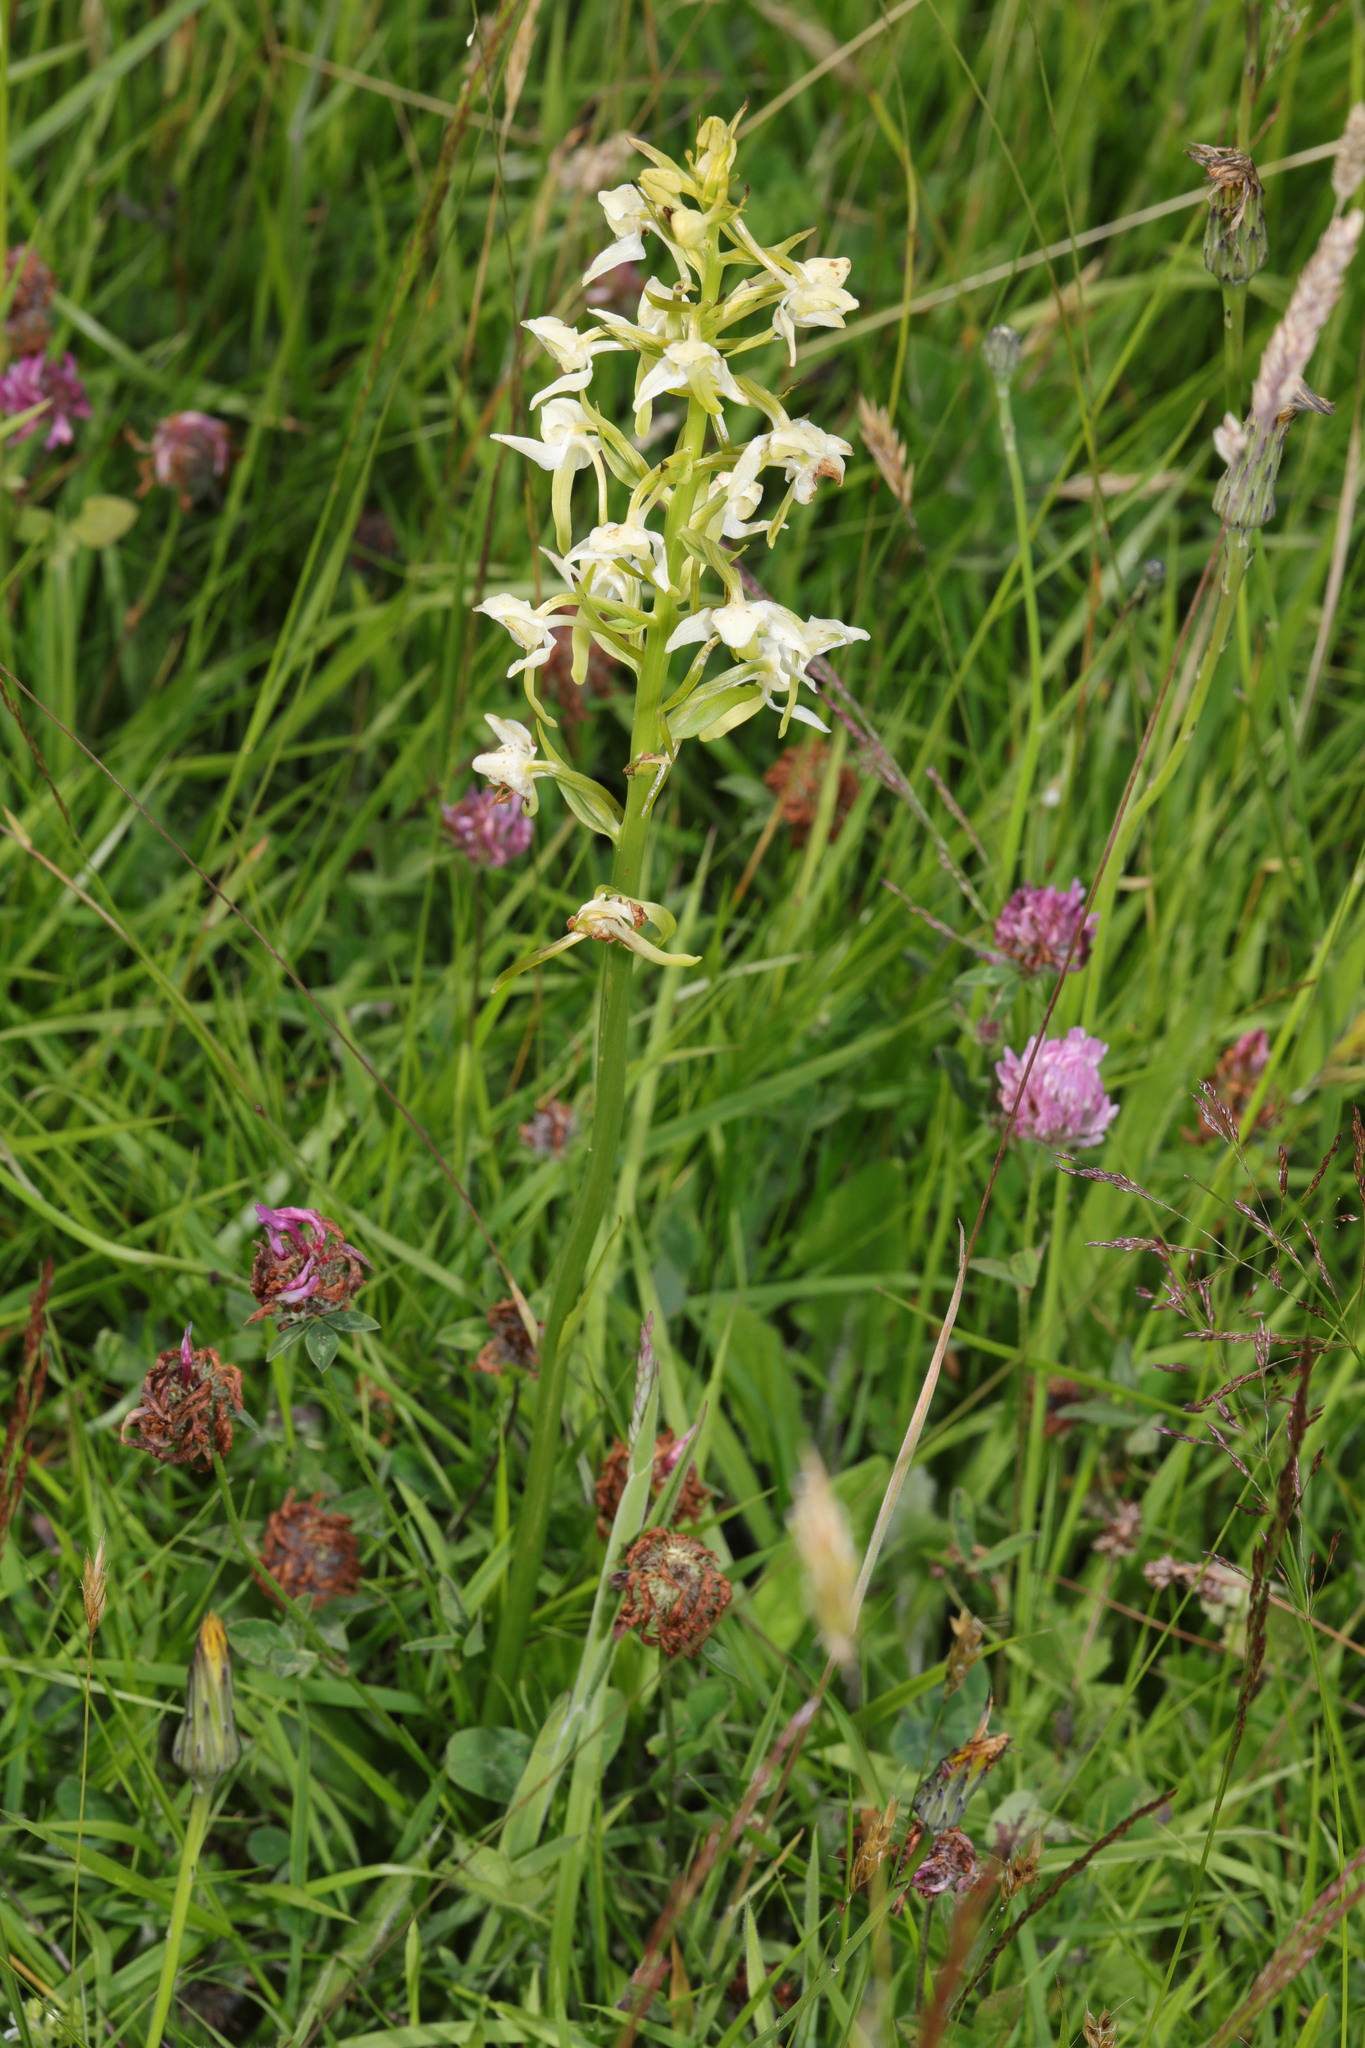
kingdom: Plantae
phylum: Tracheophyta
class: Liliopsida
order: Asparagales
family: Orchidaceae
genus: Platanthera
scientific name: Platanthera bifolia
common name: Lesser butterfly-orchid
